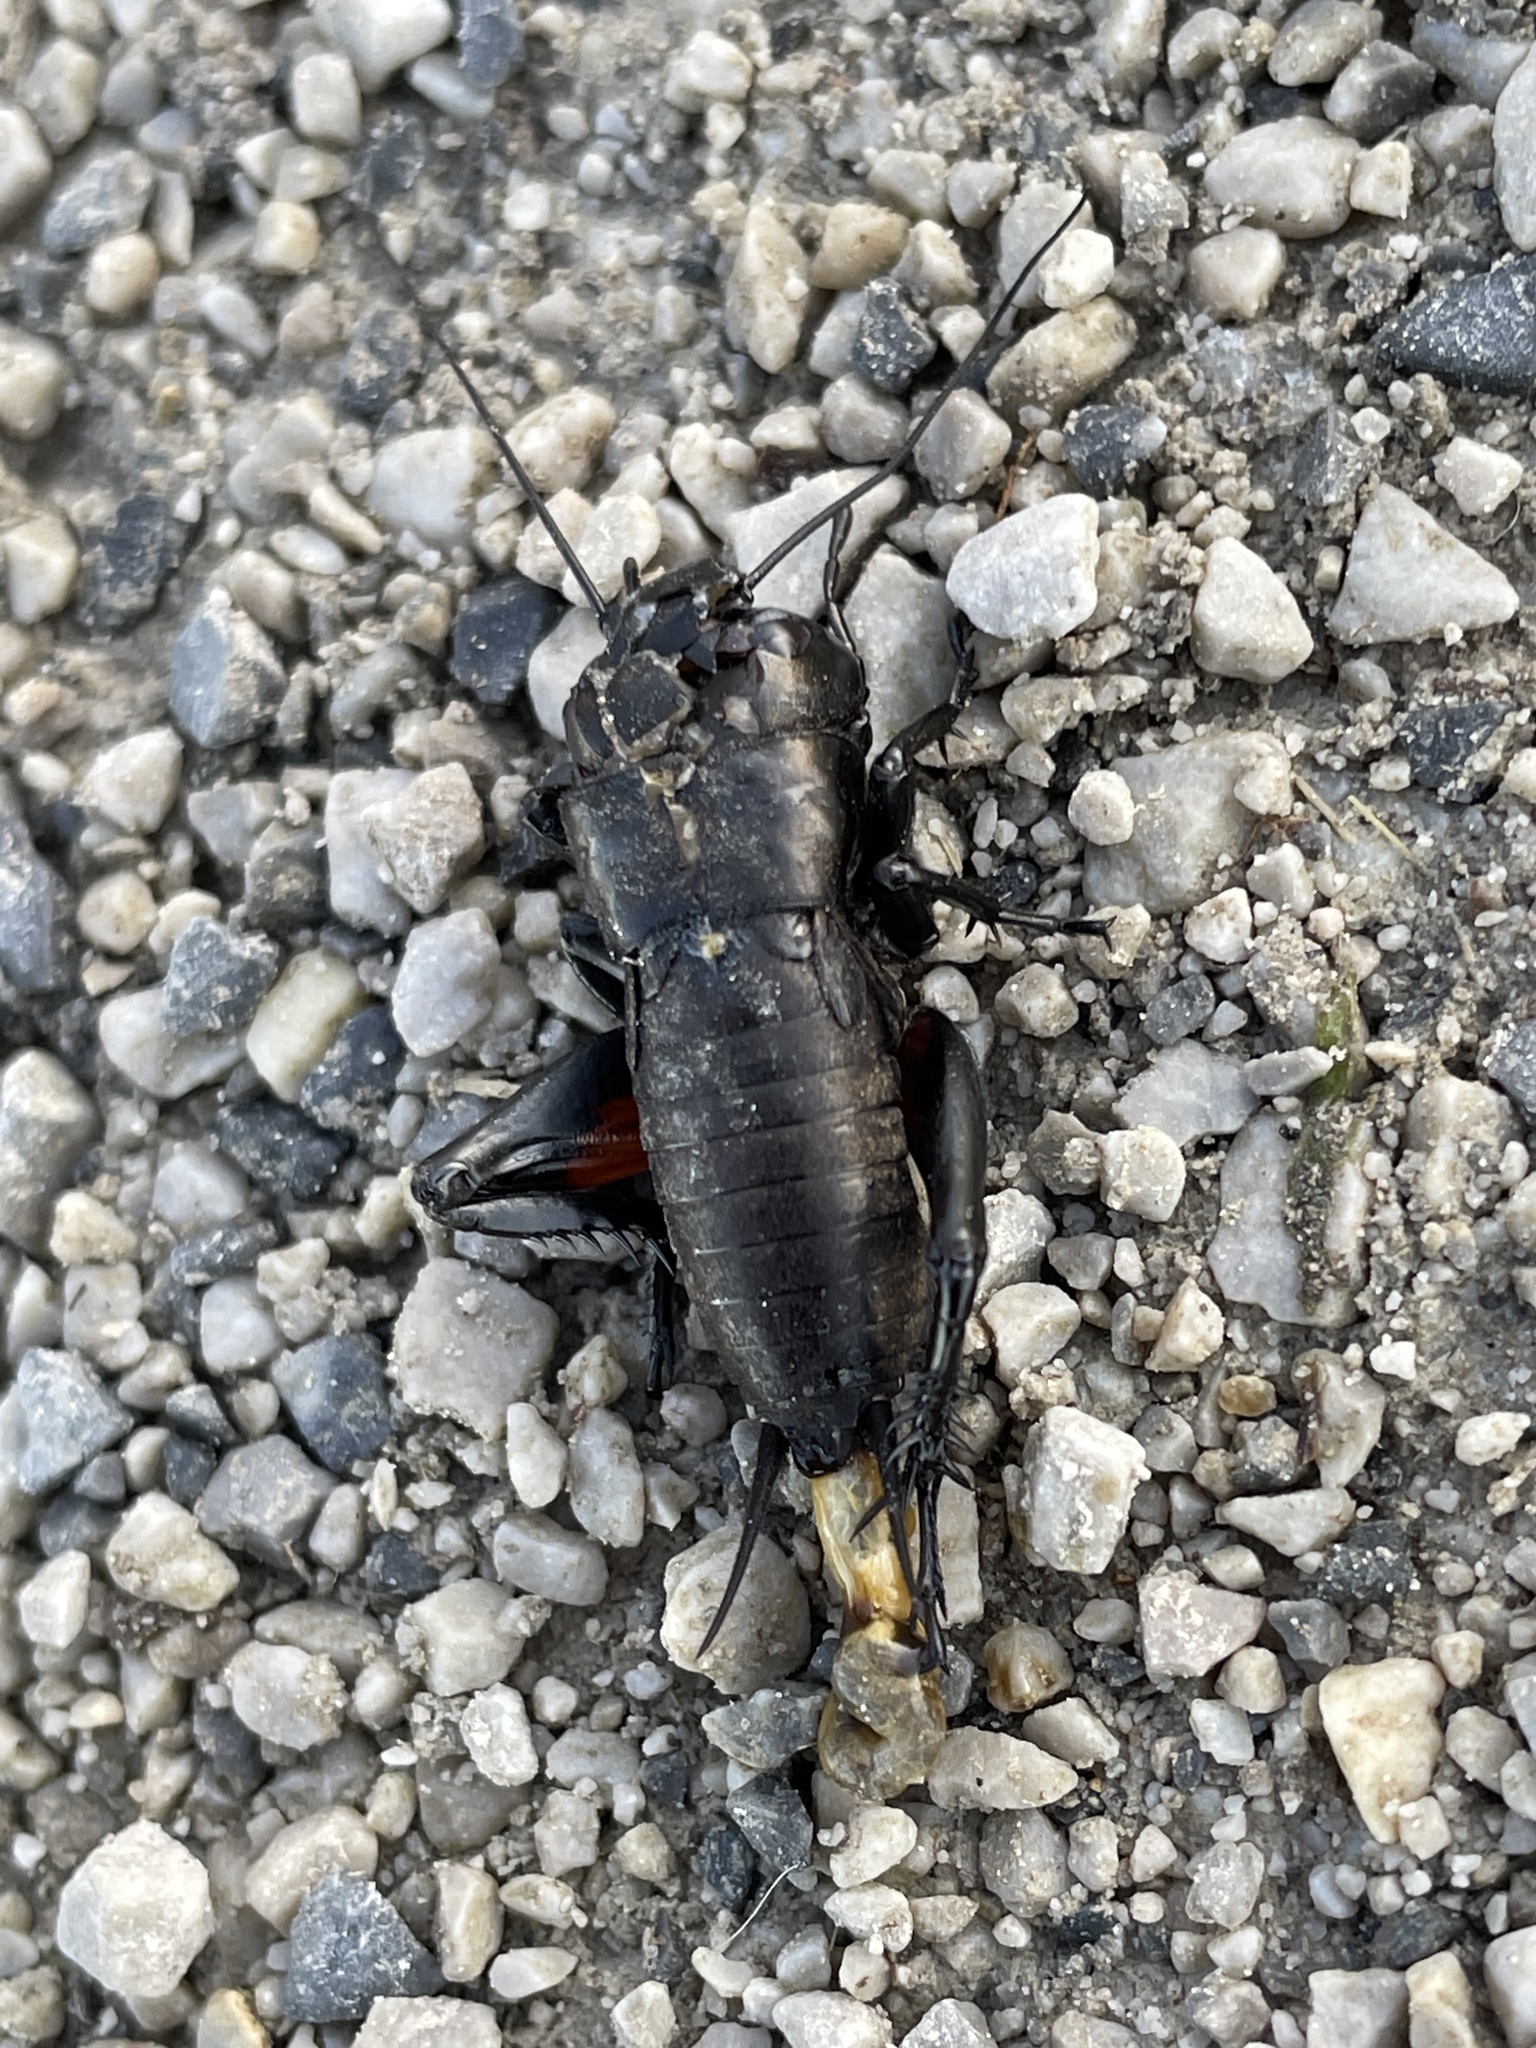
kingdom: Animalia
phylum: Arthropoda
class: Insecta
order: Orthoptera
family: Gryllidae
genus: Gryllus
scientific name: Gryllus campestris
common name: Field cricket
